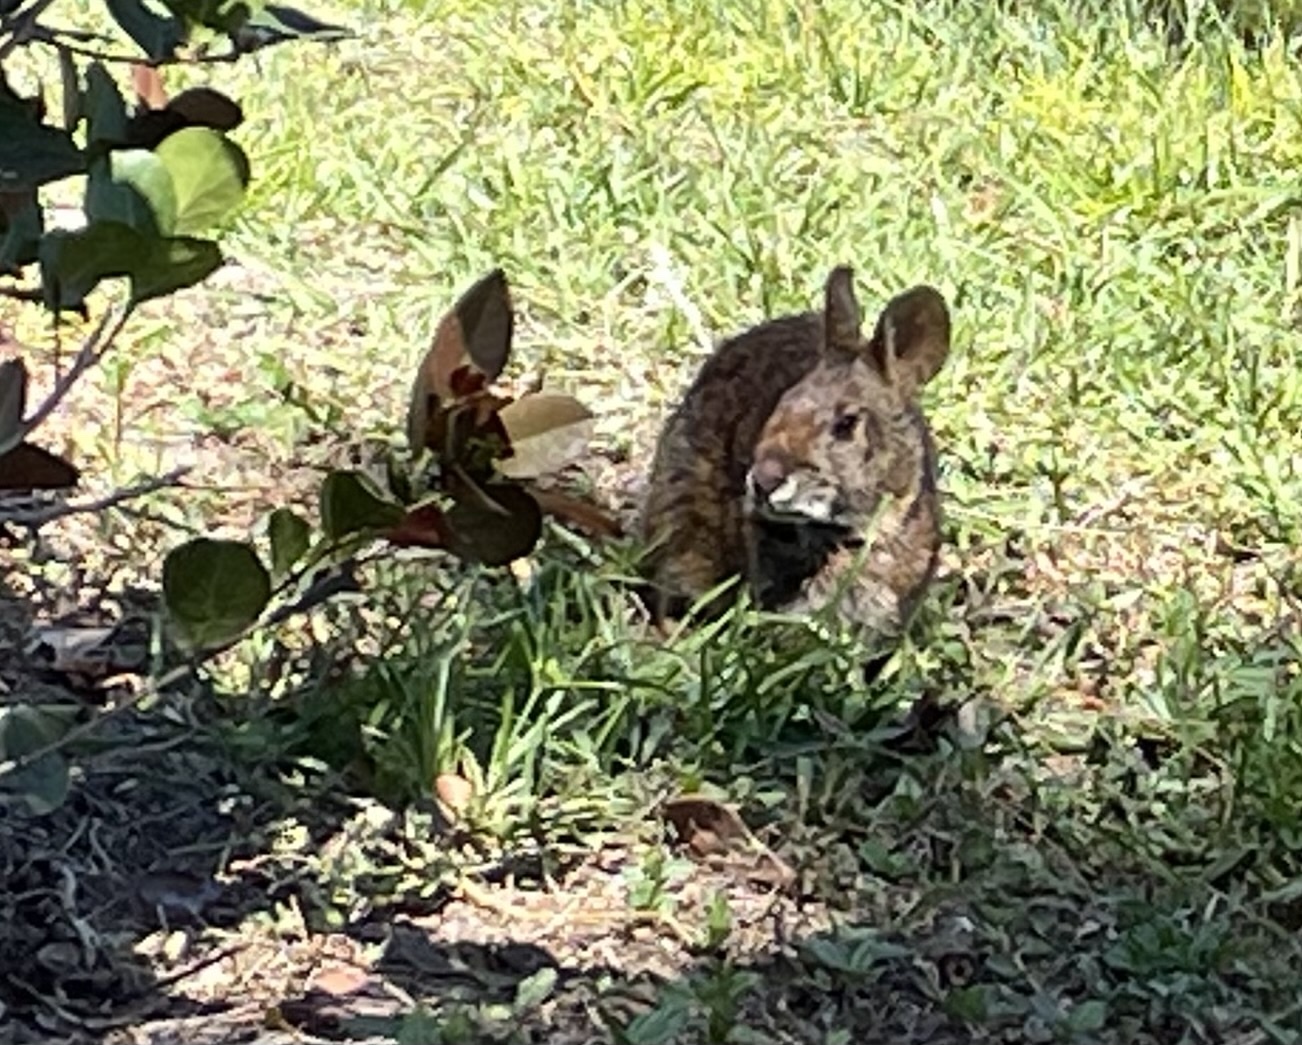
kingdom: Animalia
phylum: Chordata
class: Mammalia
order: Lagomorpha
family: Leporidae
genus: Sylvilagus
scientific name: Sylvilagus palustris
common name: Marsh rabbit
